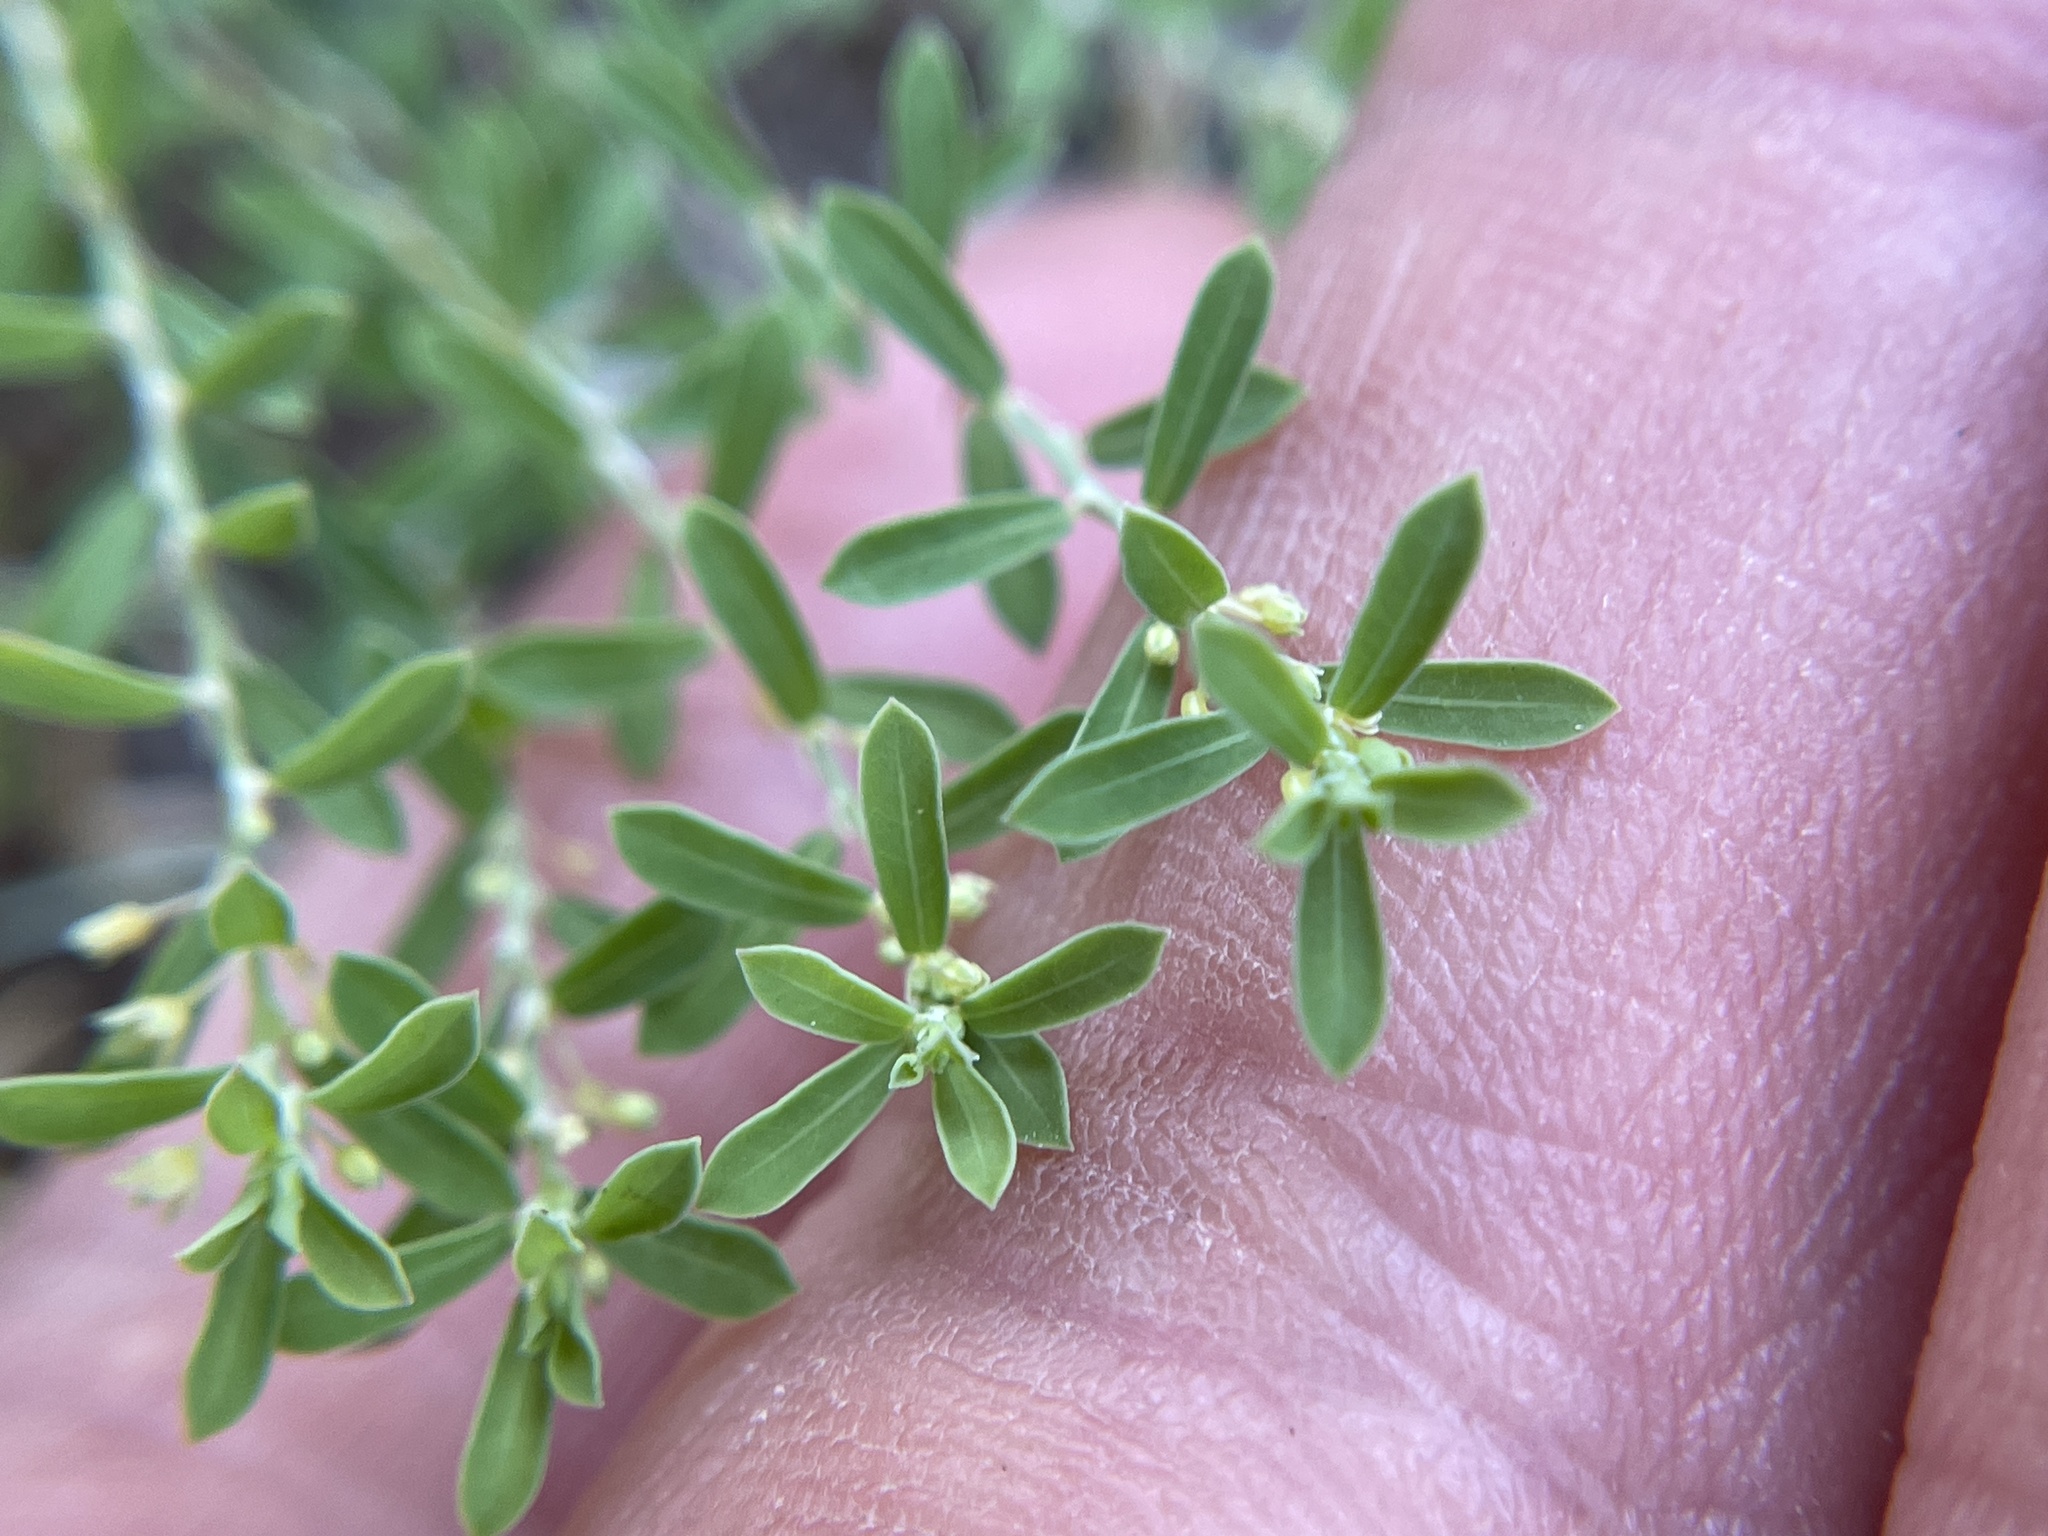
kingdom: Plantae
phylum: Tracheophyta
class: Magnoliopsida
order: Malpighiales
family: Phyllanthaceae
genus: Phyllanthus
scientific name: Phyllanthus polygonoides
